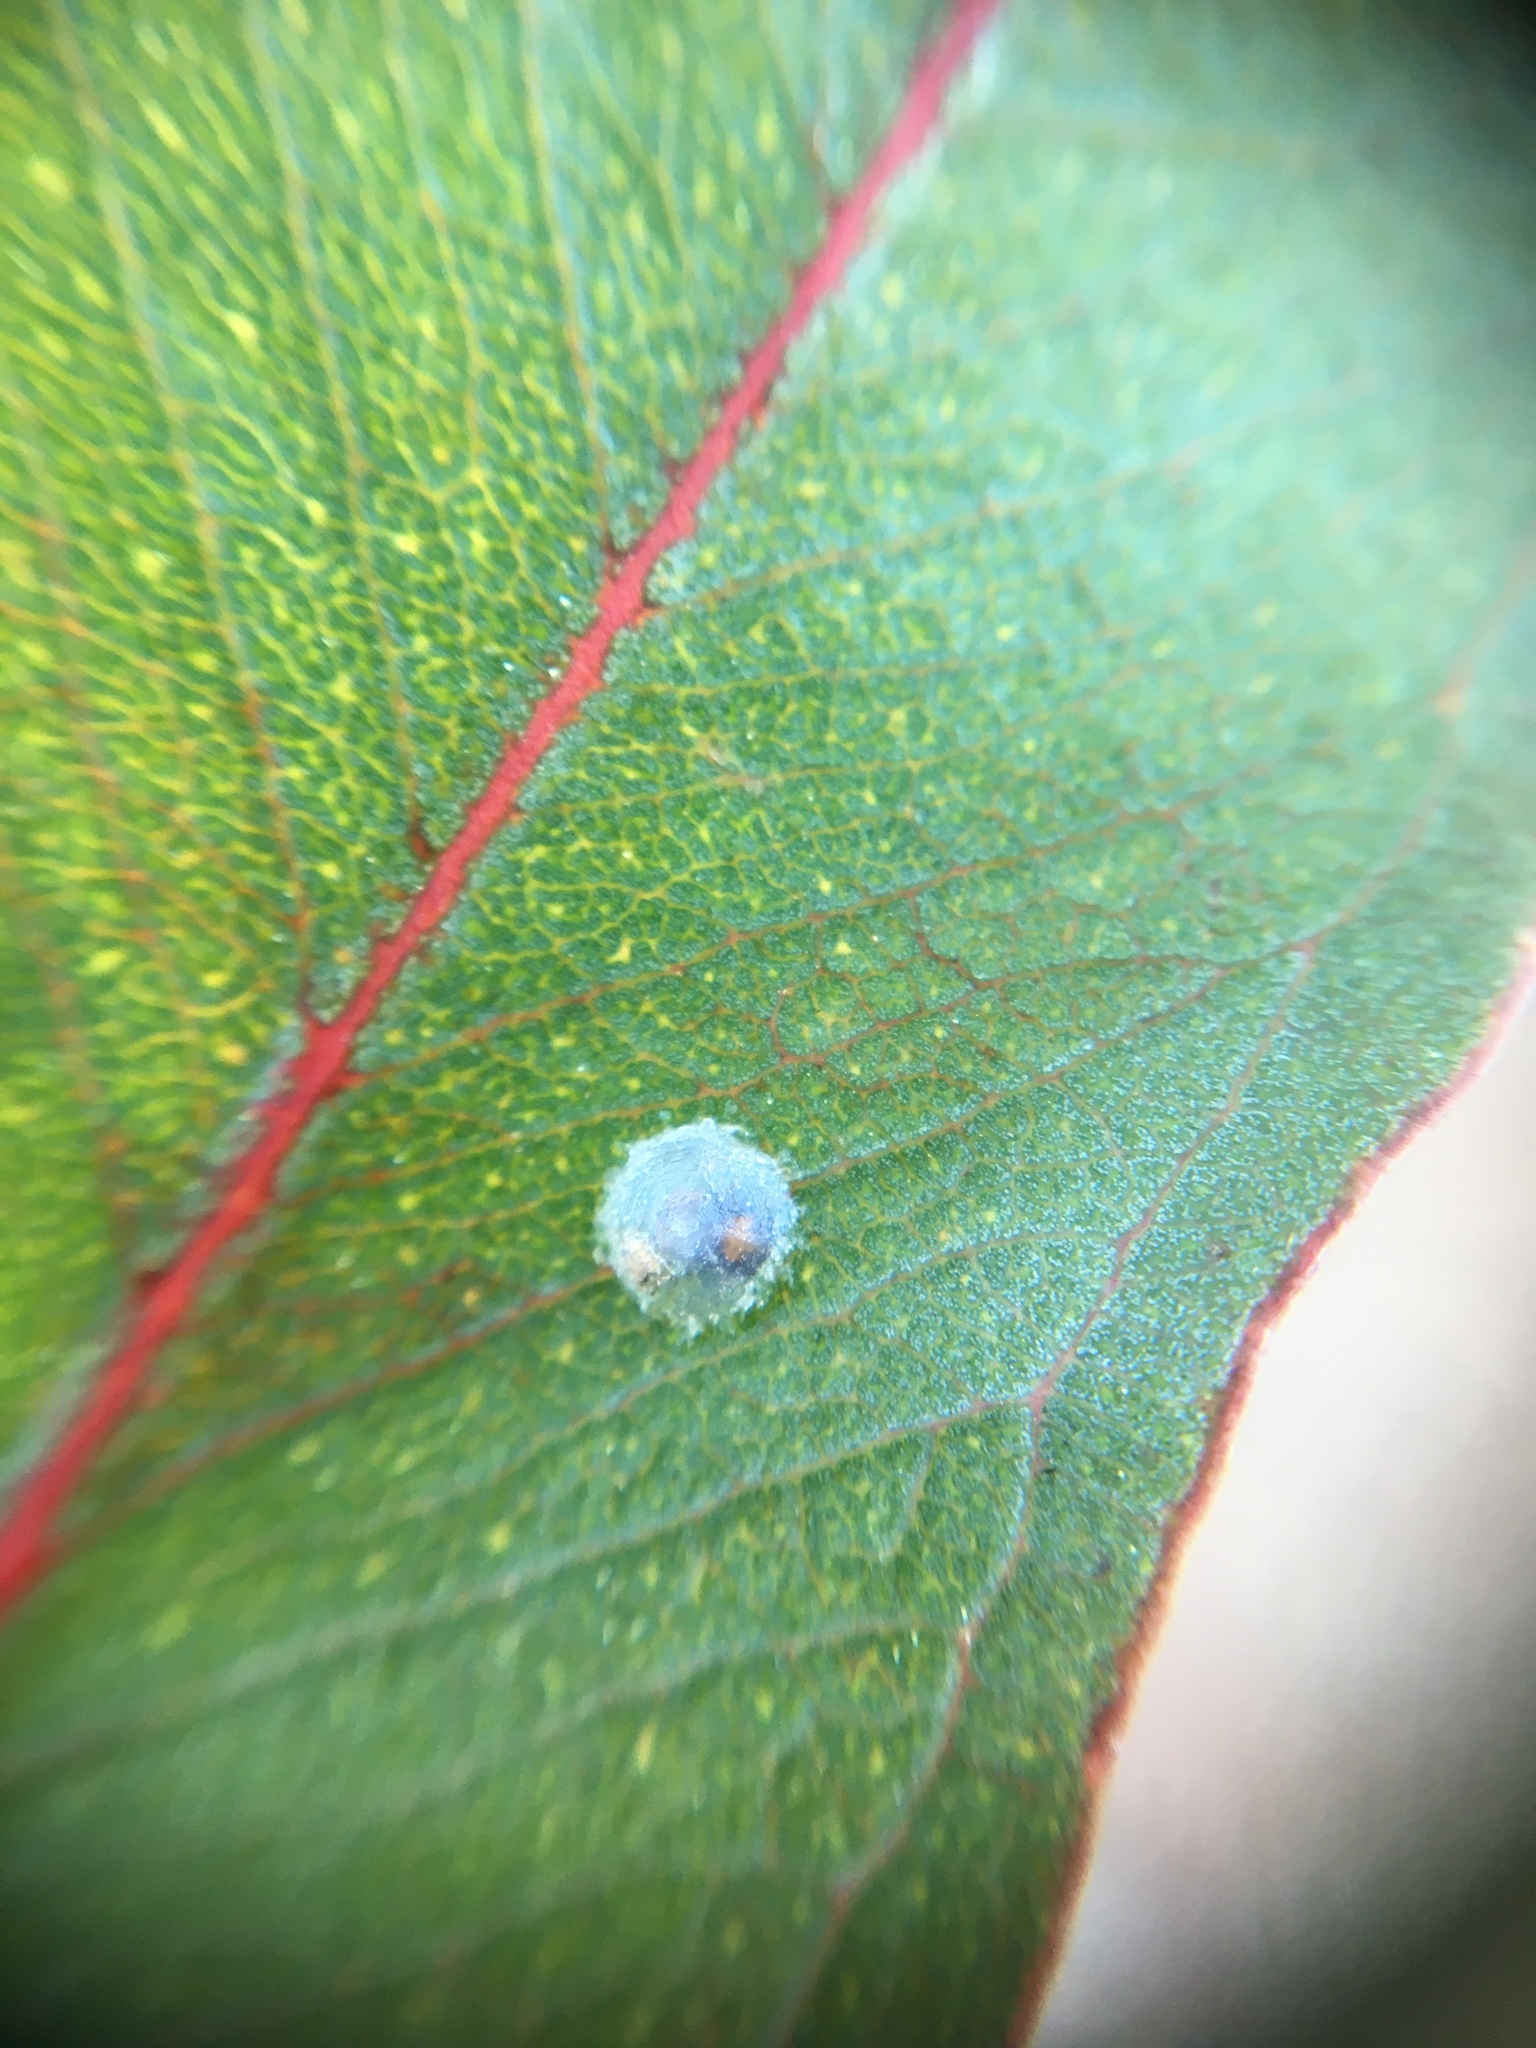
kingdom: Animalia
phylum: Arthropoda
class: Insecta
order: Hemiptera
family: Aphalaridae
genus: Glycaspis
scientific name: Glycaspis brimblecombei
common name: Red gum lerp psyllid
